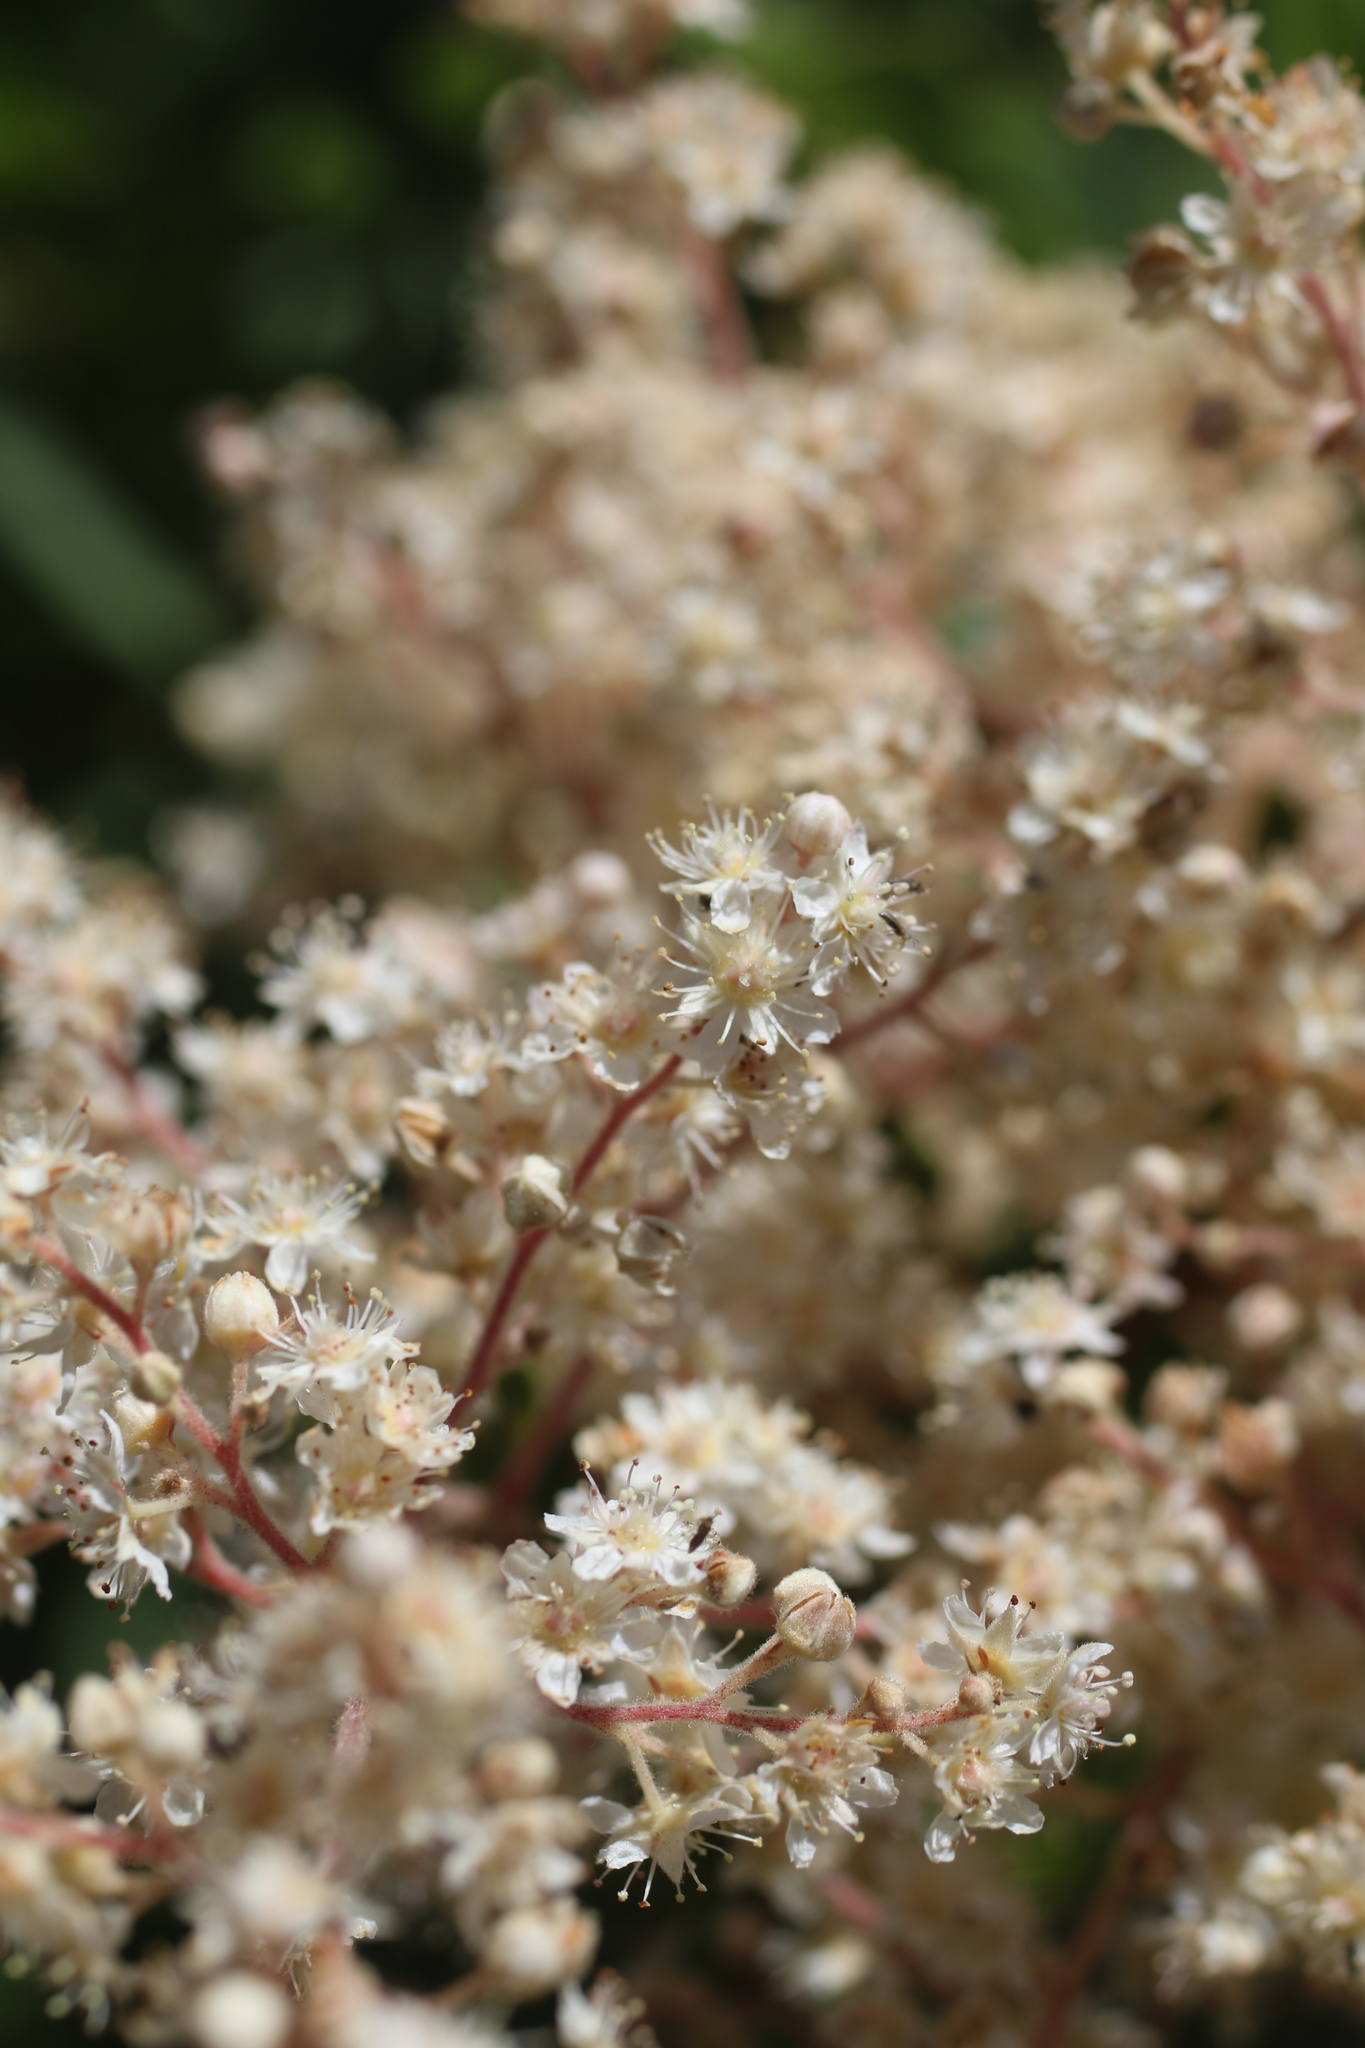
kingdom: Plantae
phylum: Tracheophyta
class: Magnoliopsida
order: Rosales
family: Rosaceae
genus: Holodiscus
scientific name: Holodiscus discolor
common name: Oceanspray
